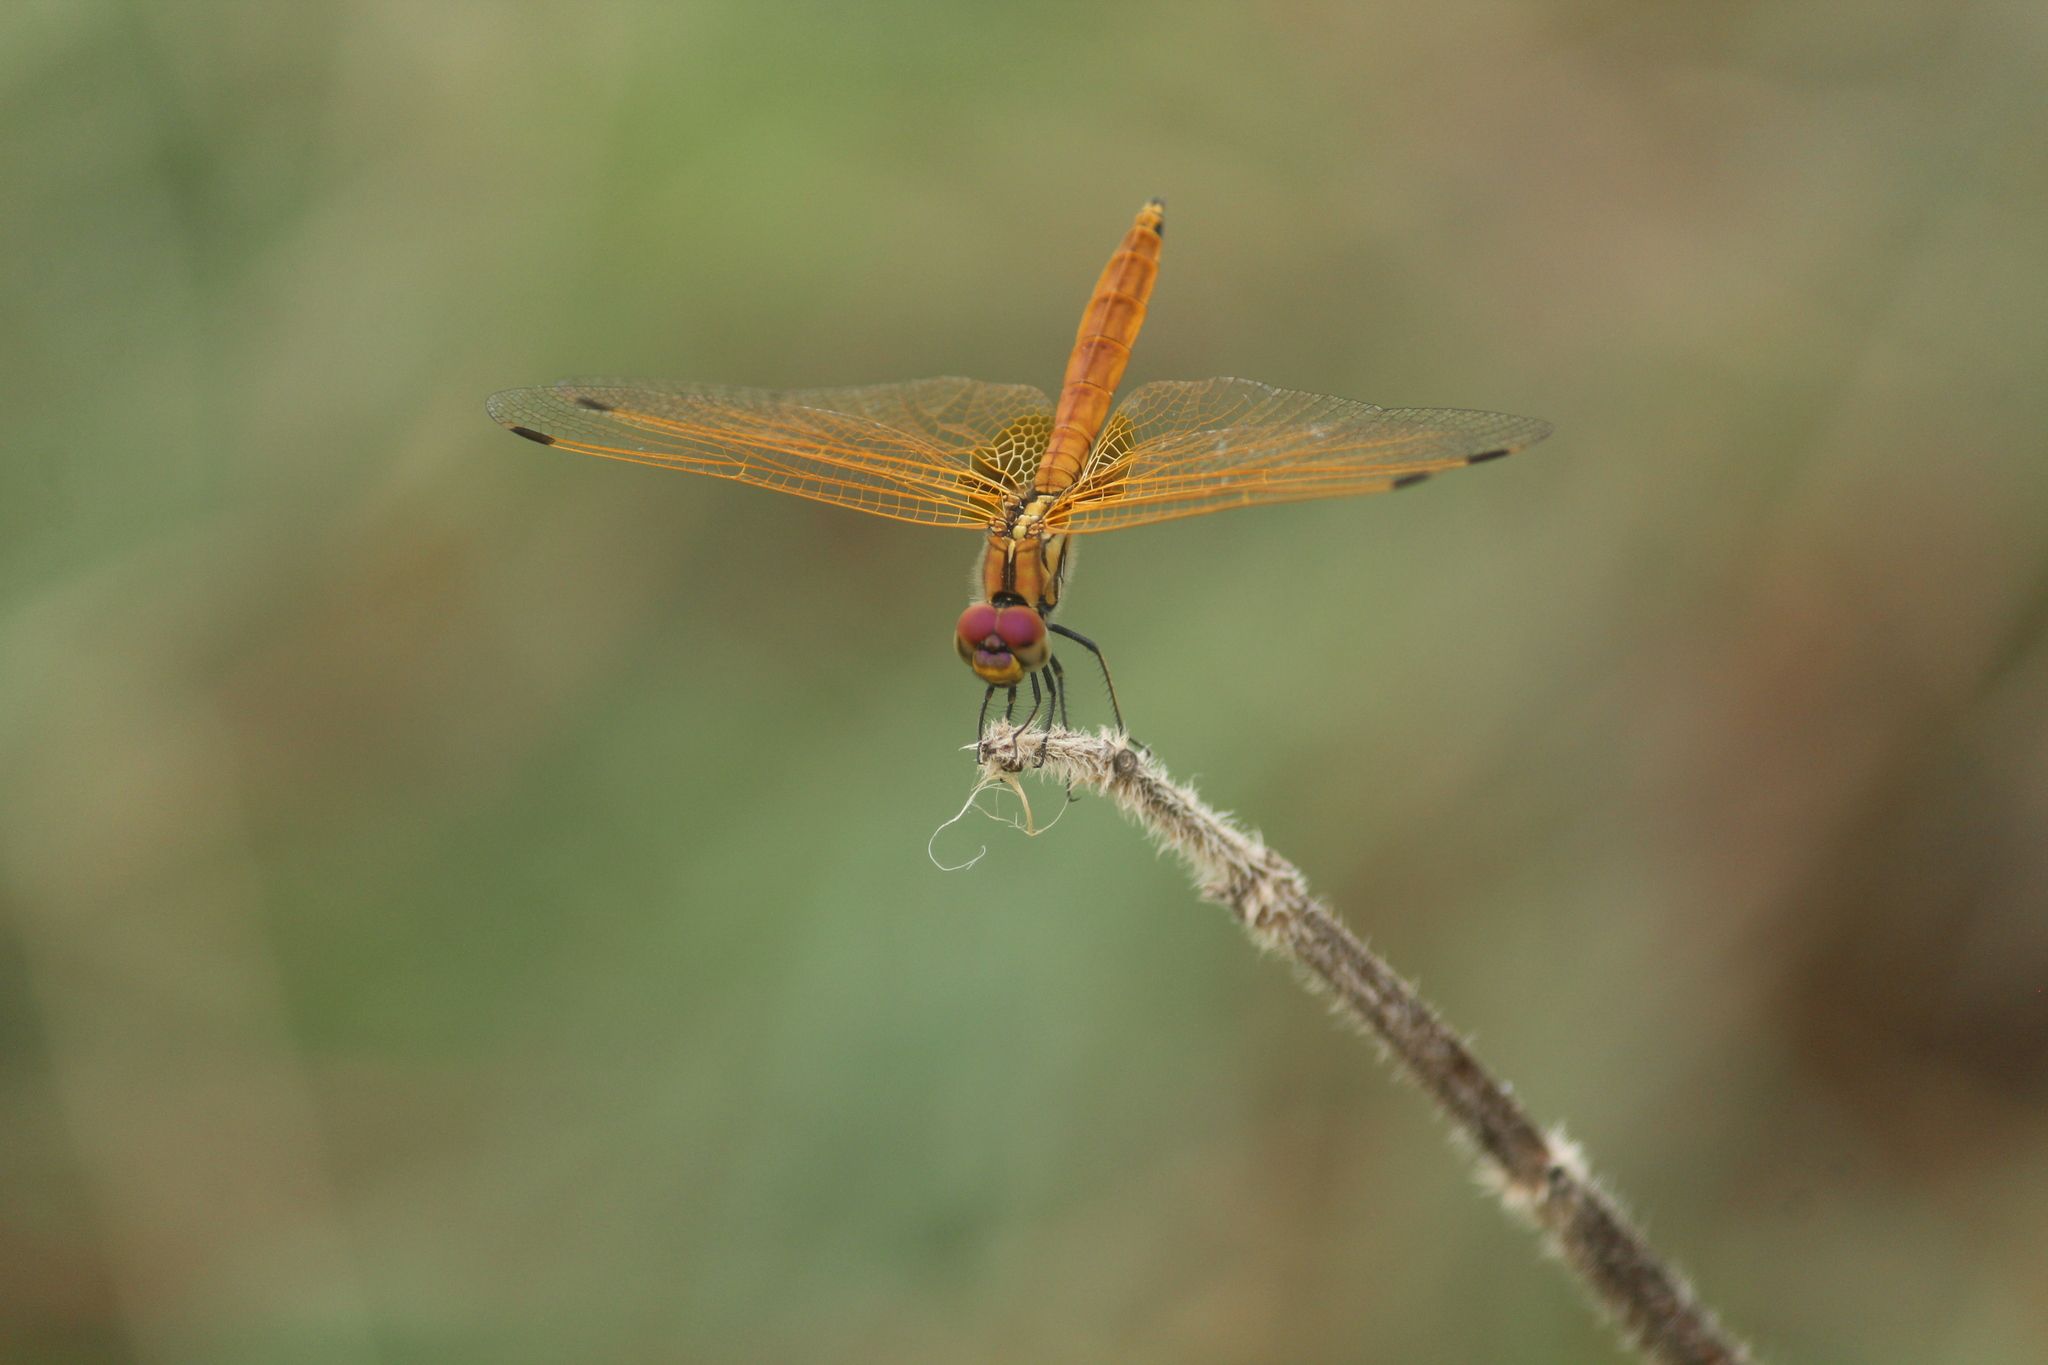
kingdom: Animalia
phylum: Arthropoda
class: Insecta
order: Odonata
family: Libellulidae
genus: Trithemis
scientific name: Trithemis aurora
